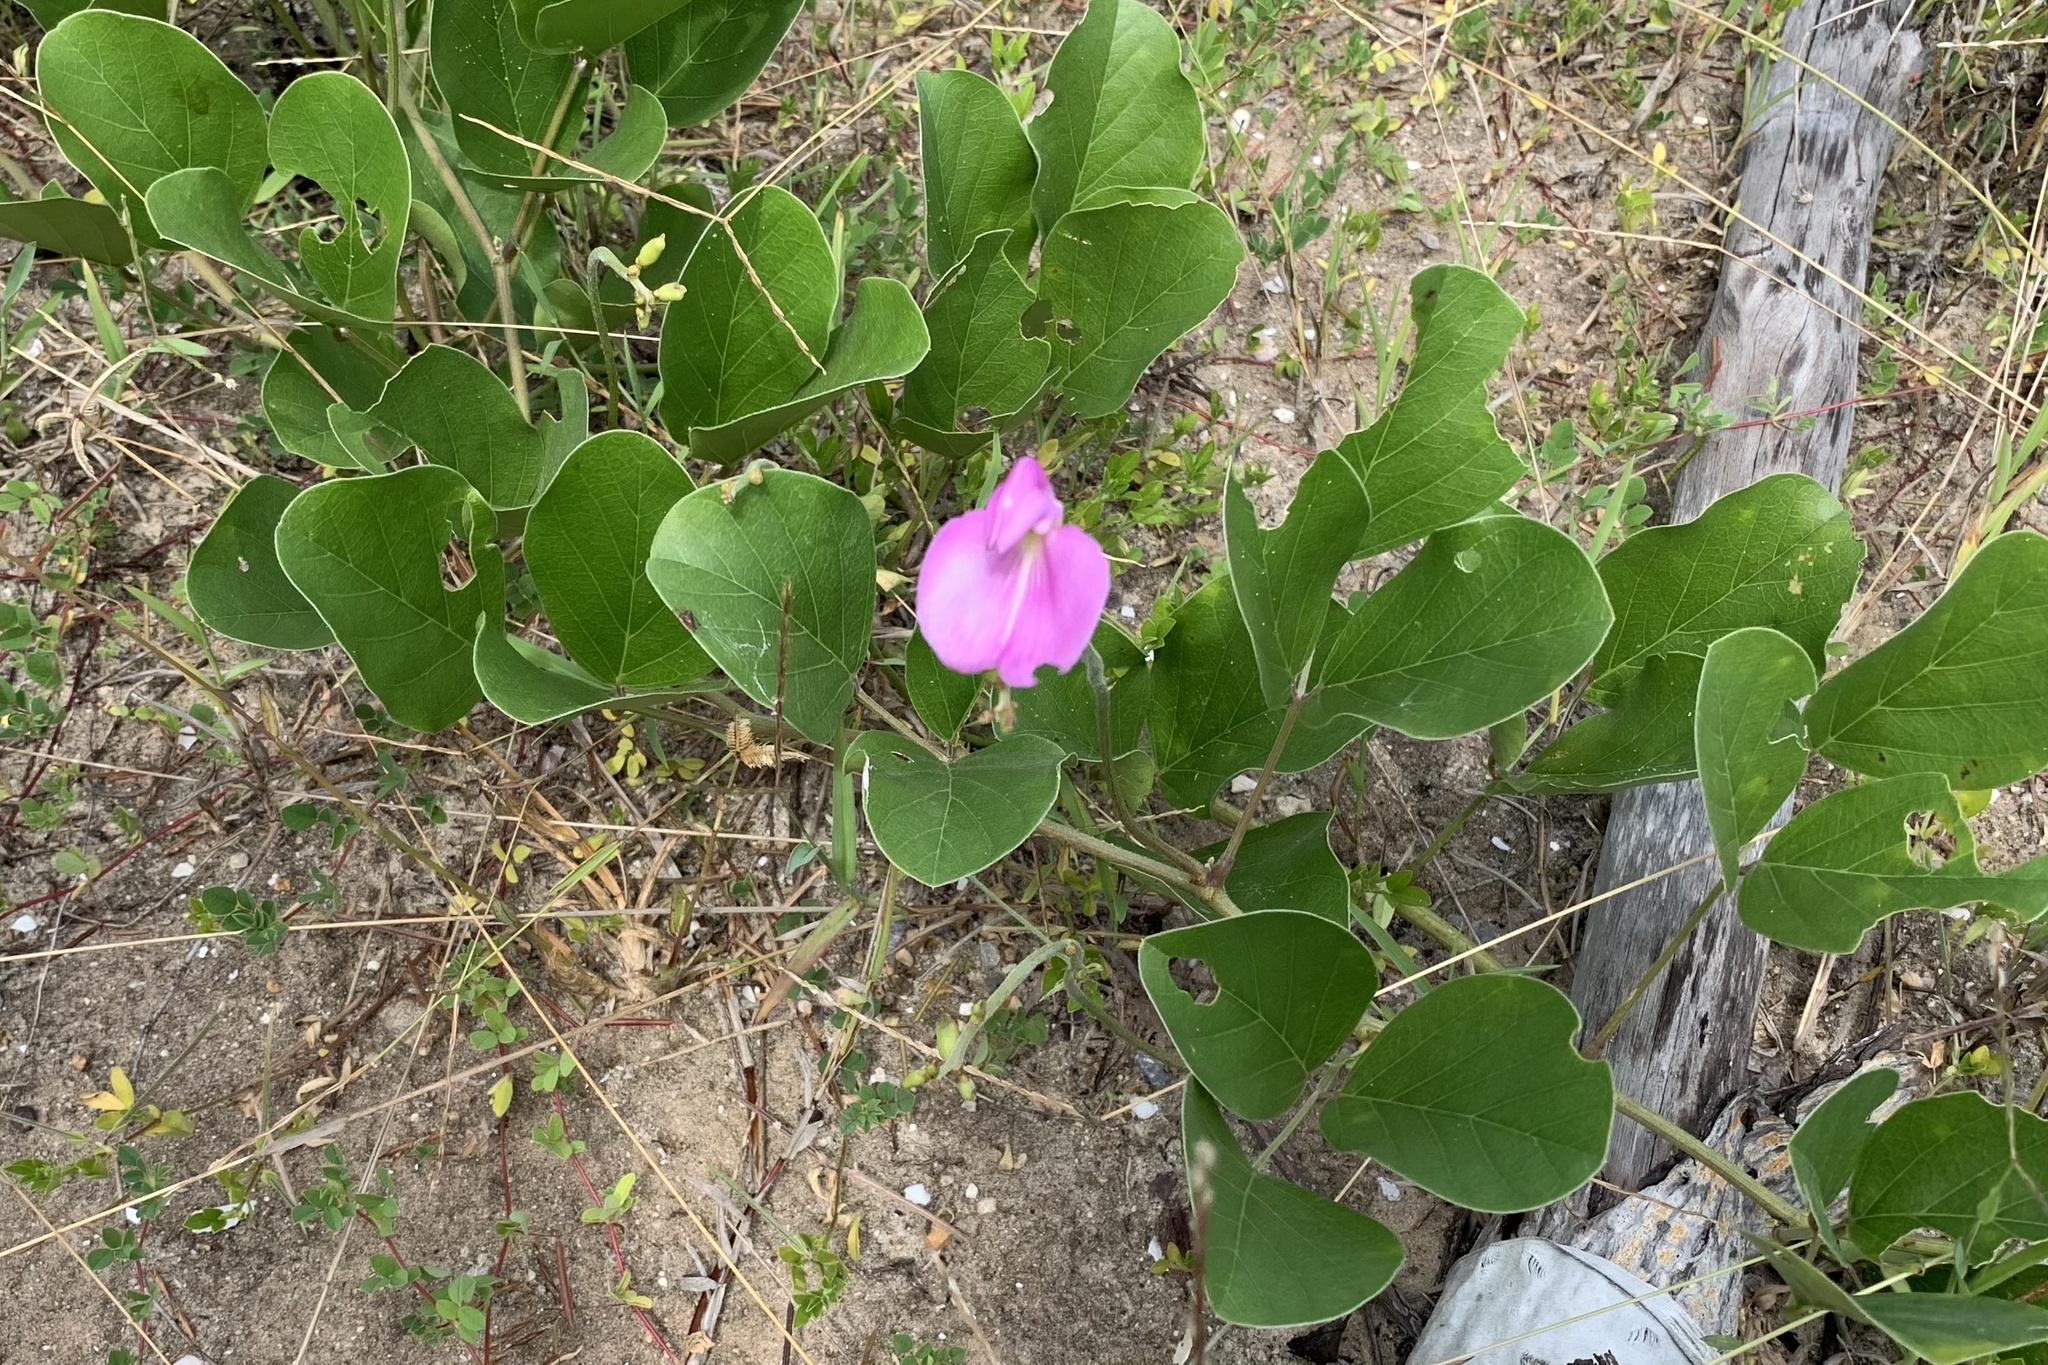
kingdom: Plantae
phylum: Tracheophyta
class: Magnoliopsida
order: Fabales
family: Fabaceae
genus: Canavalia
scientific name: Canavalia rosea
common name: Beach-bean
